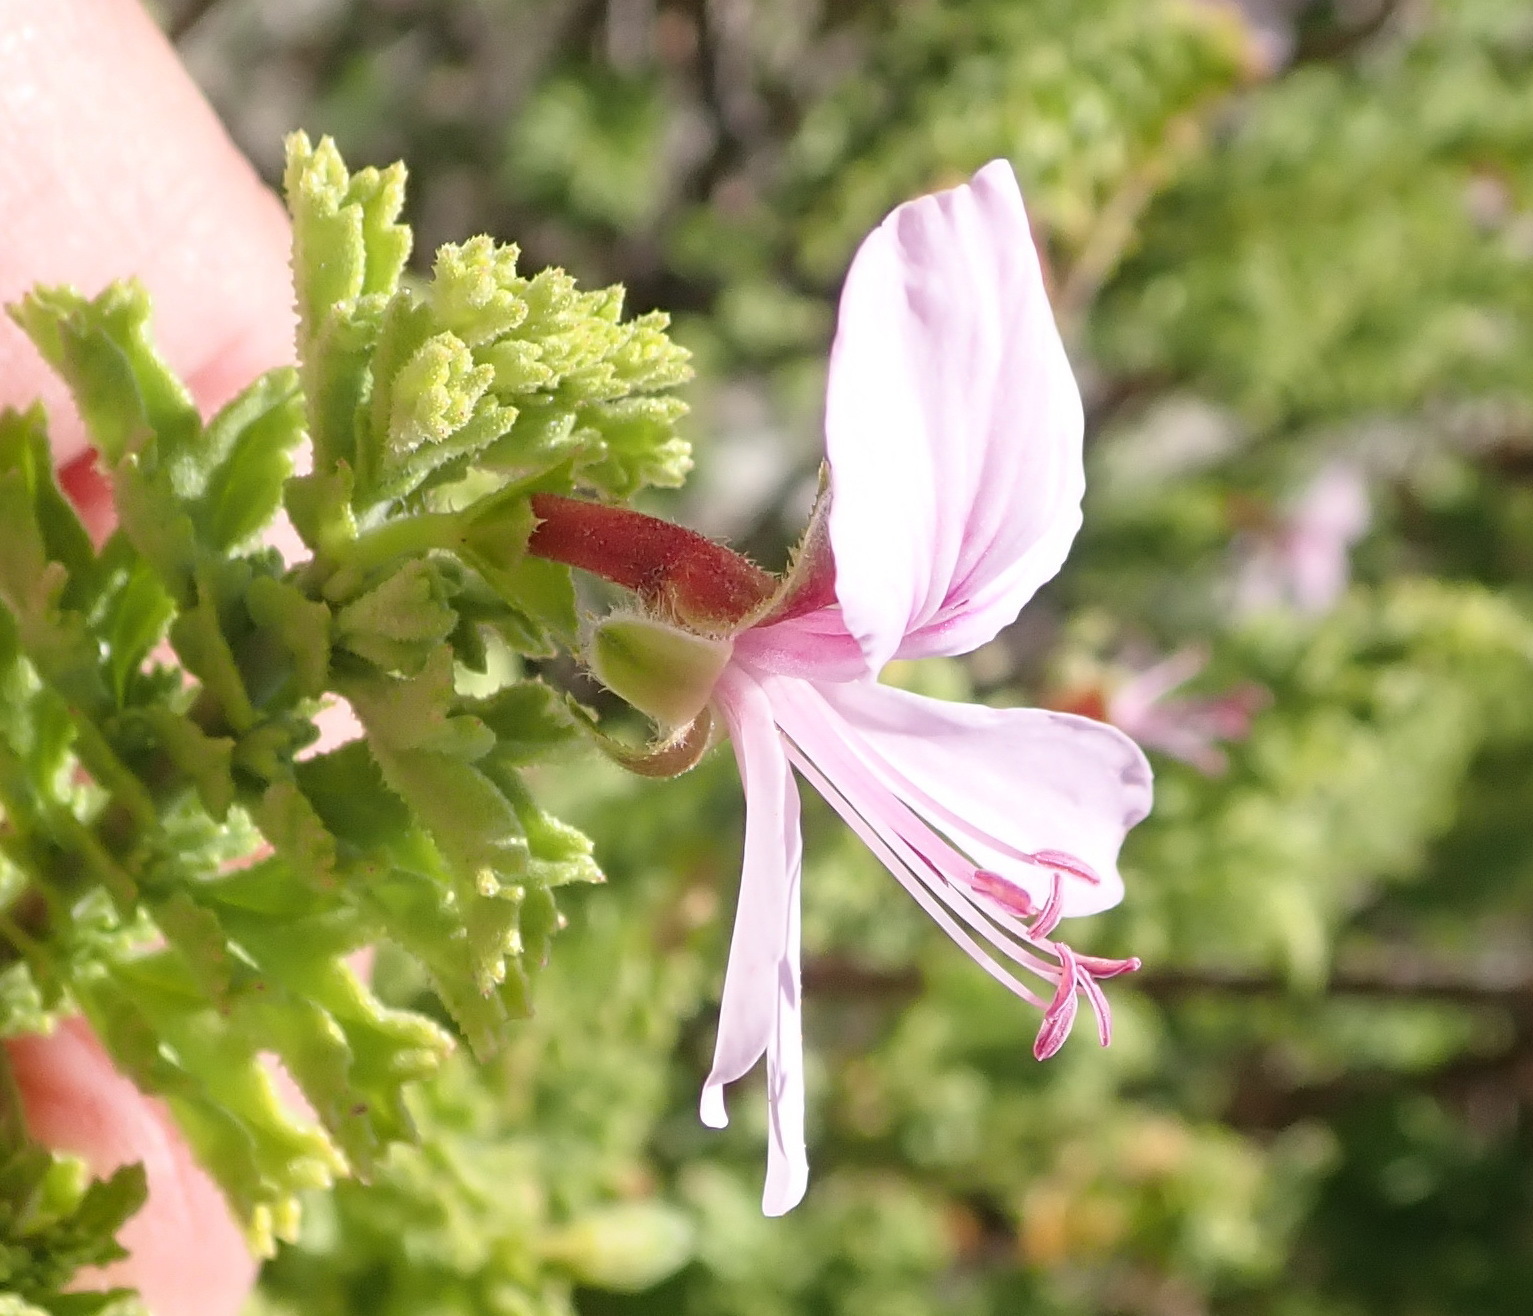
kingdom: Plantae
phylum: Tracheophyta
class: Magnoliopsida
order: Geraniales
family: Geraniaceae
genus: Pelargonium
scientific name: Pelargonium hermaniifolium
